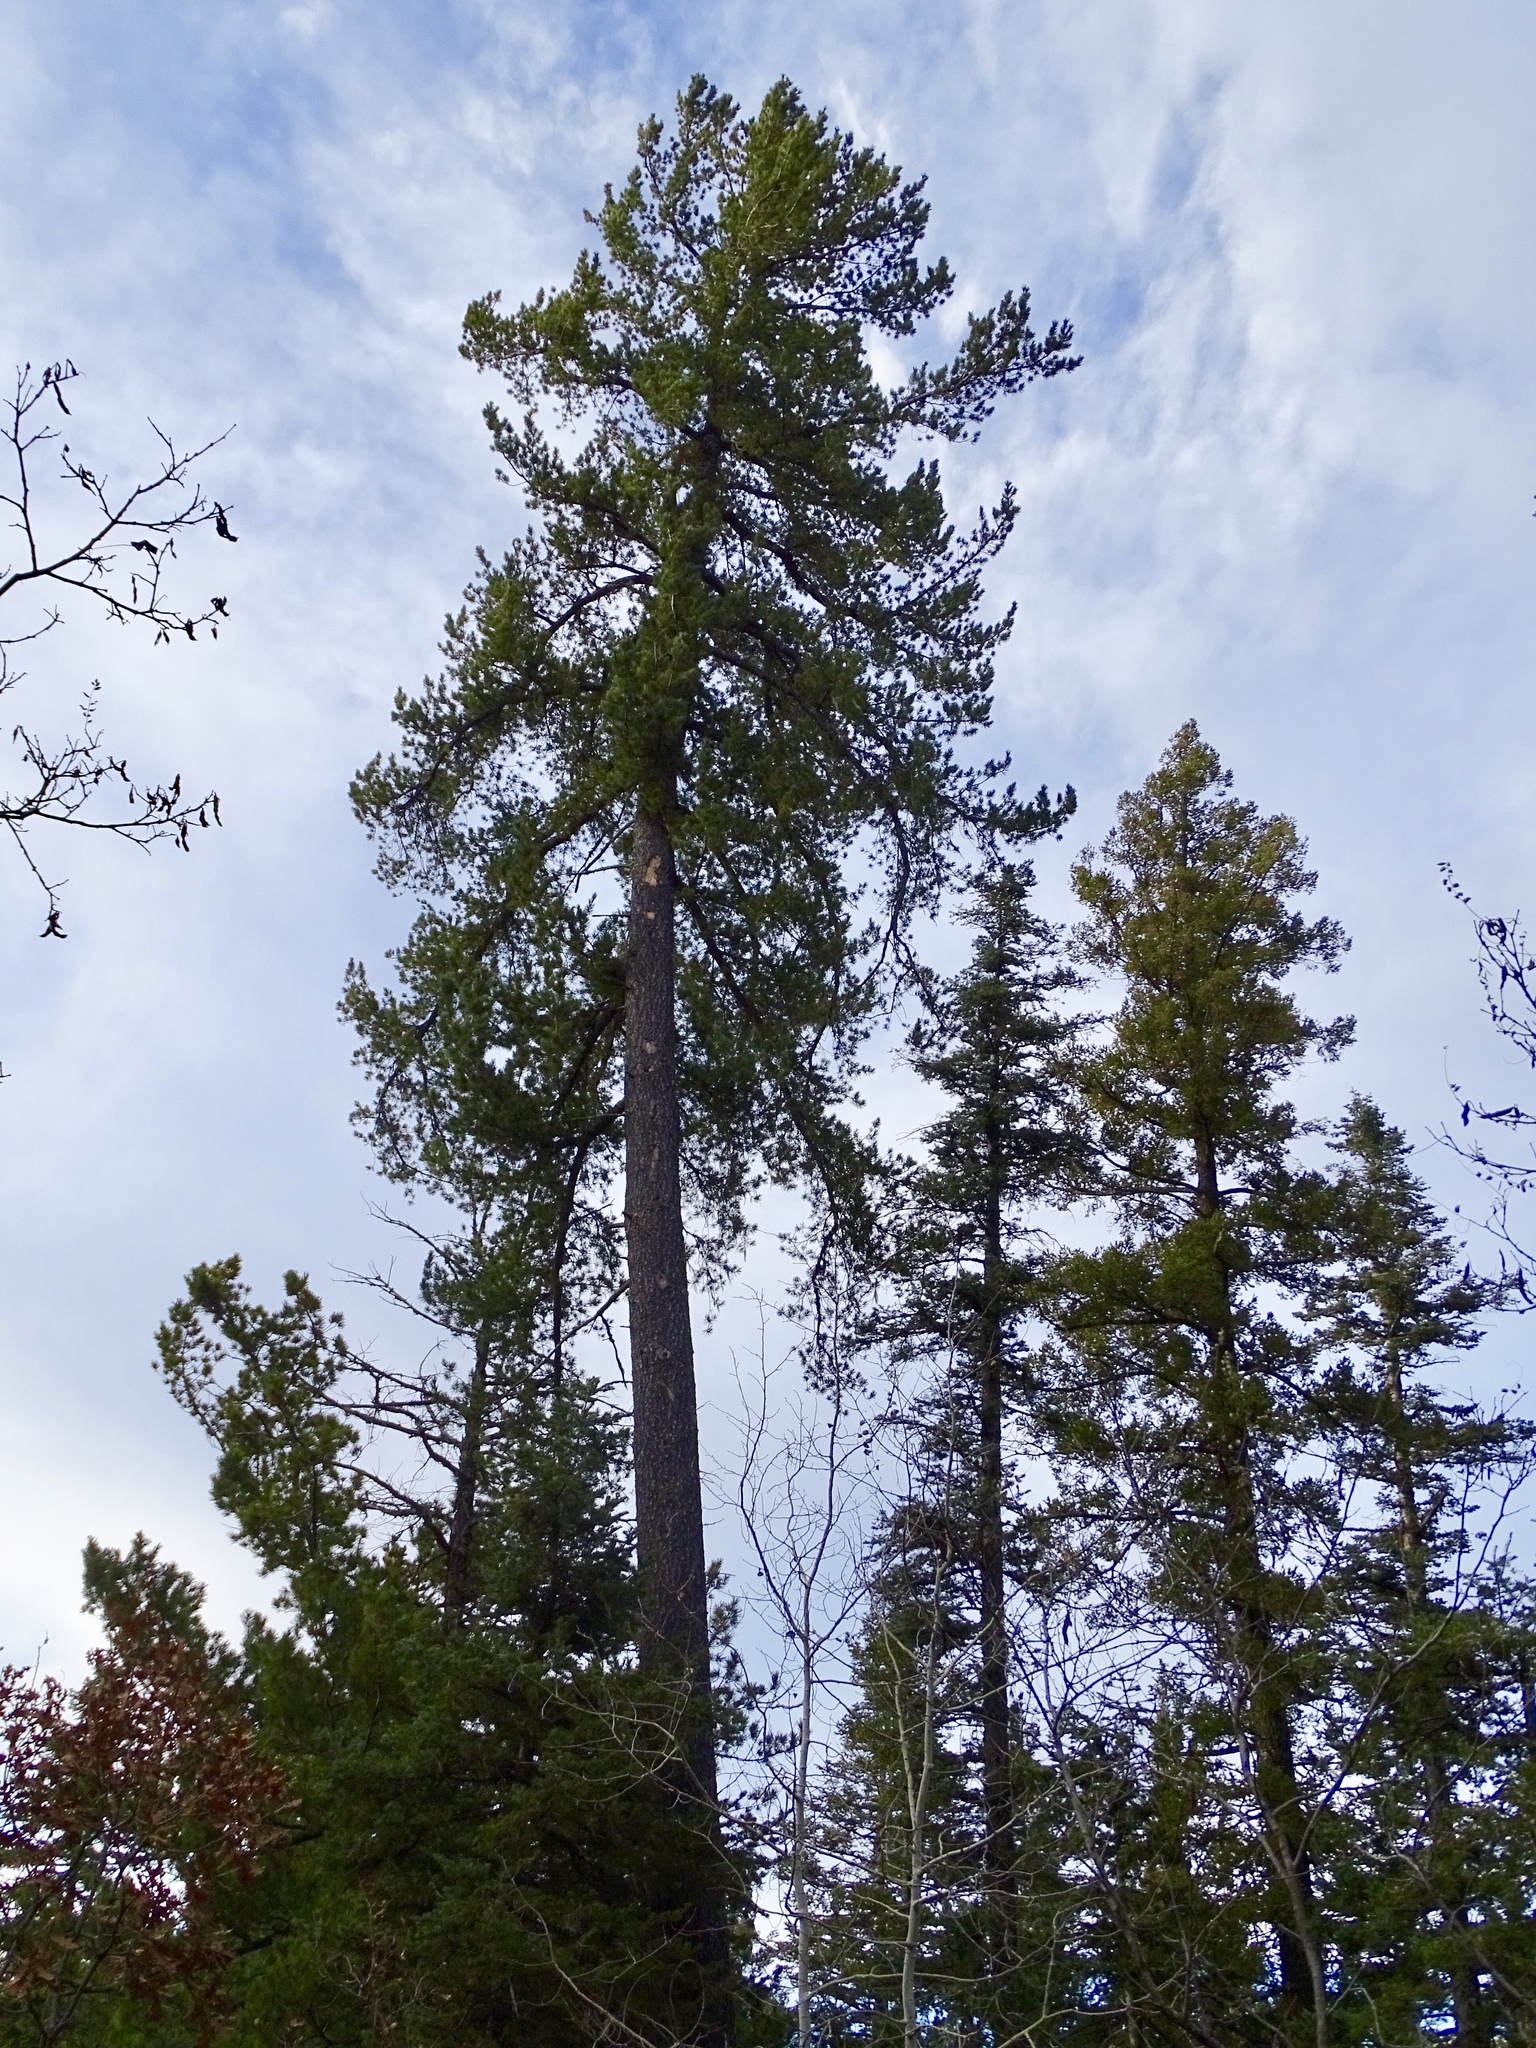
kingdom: Plantae
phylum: Tracheophyta
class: Pinopsida
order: Pinales
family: Pinaceae
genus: Pinus
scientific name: Pinus strobiformis
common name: Southwestern white pine
